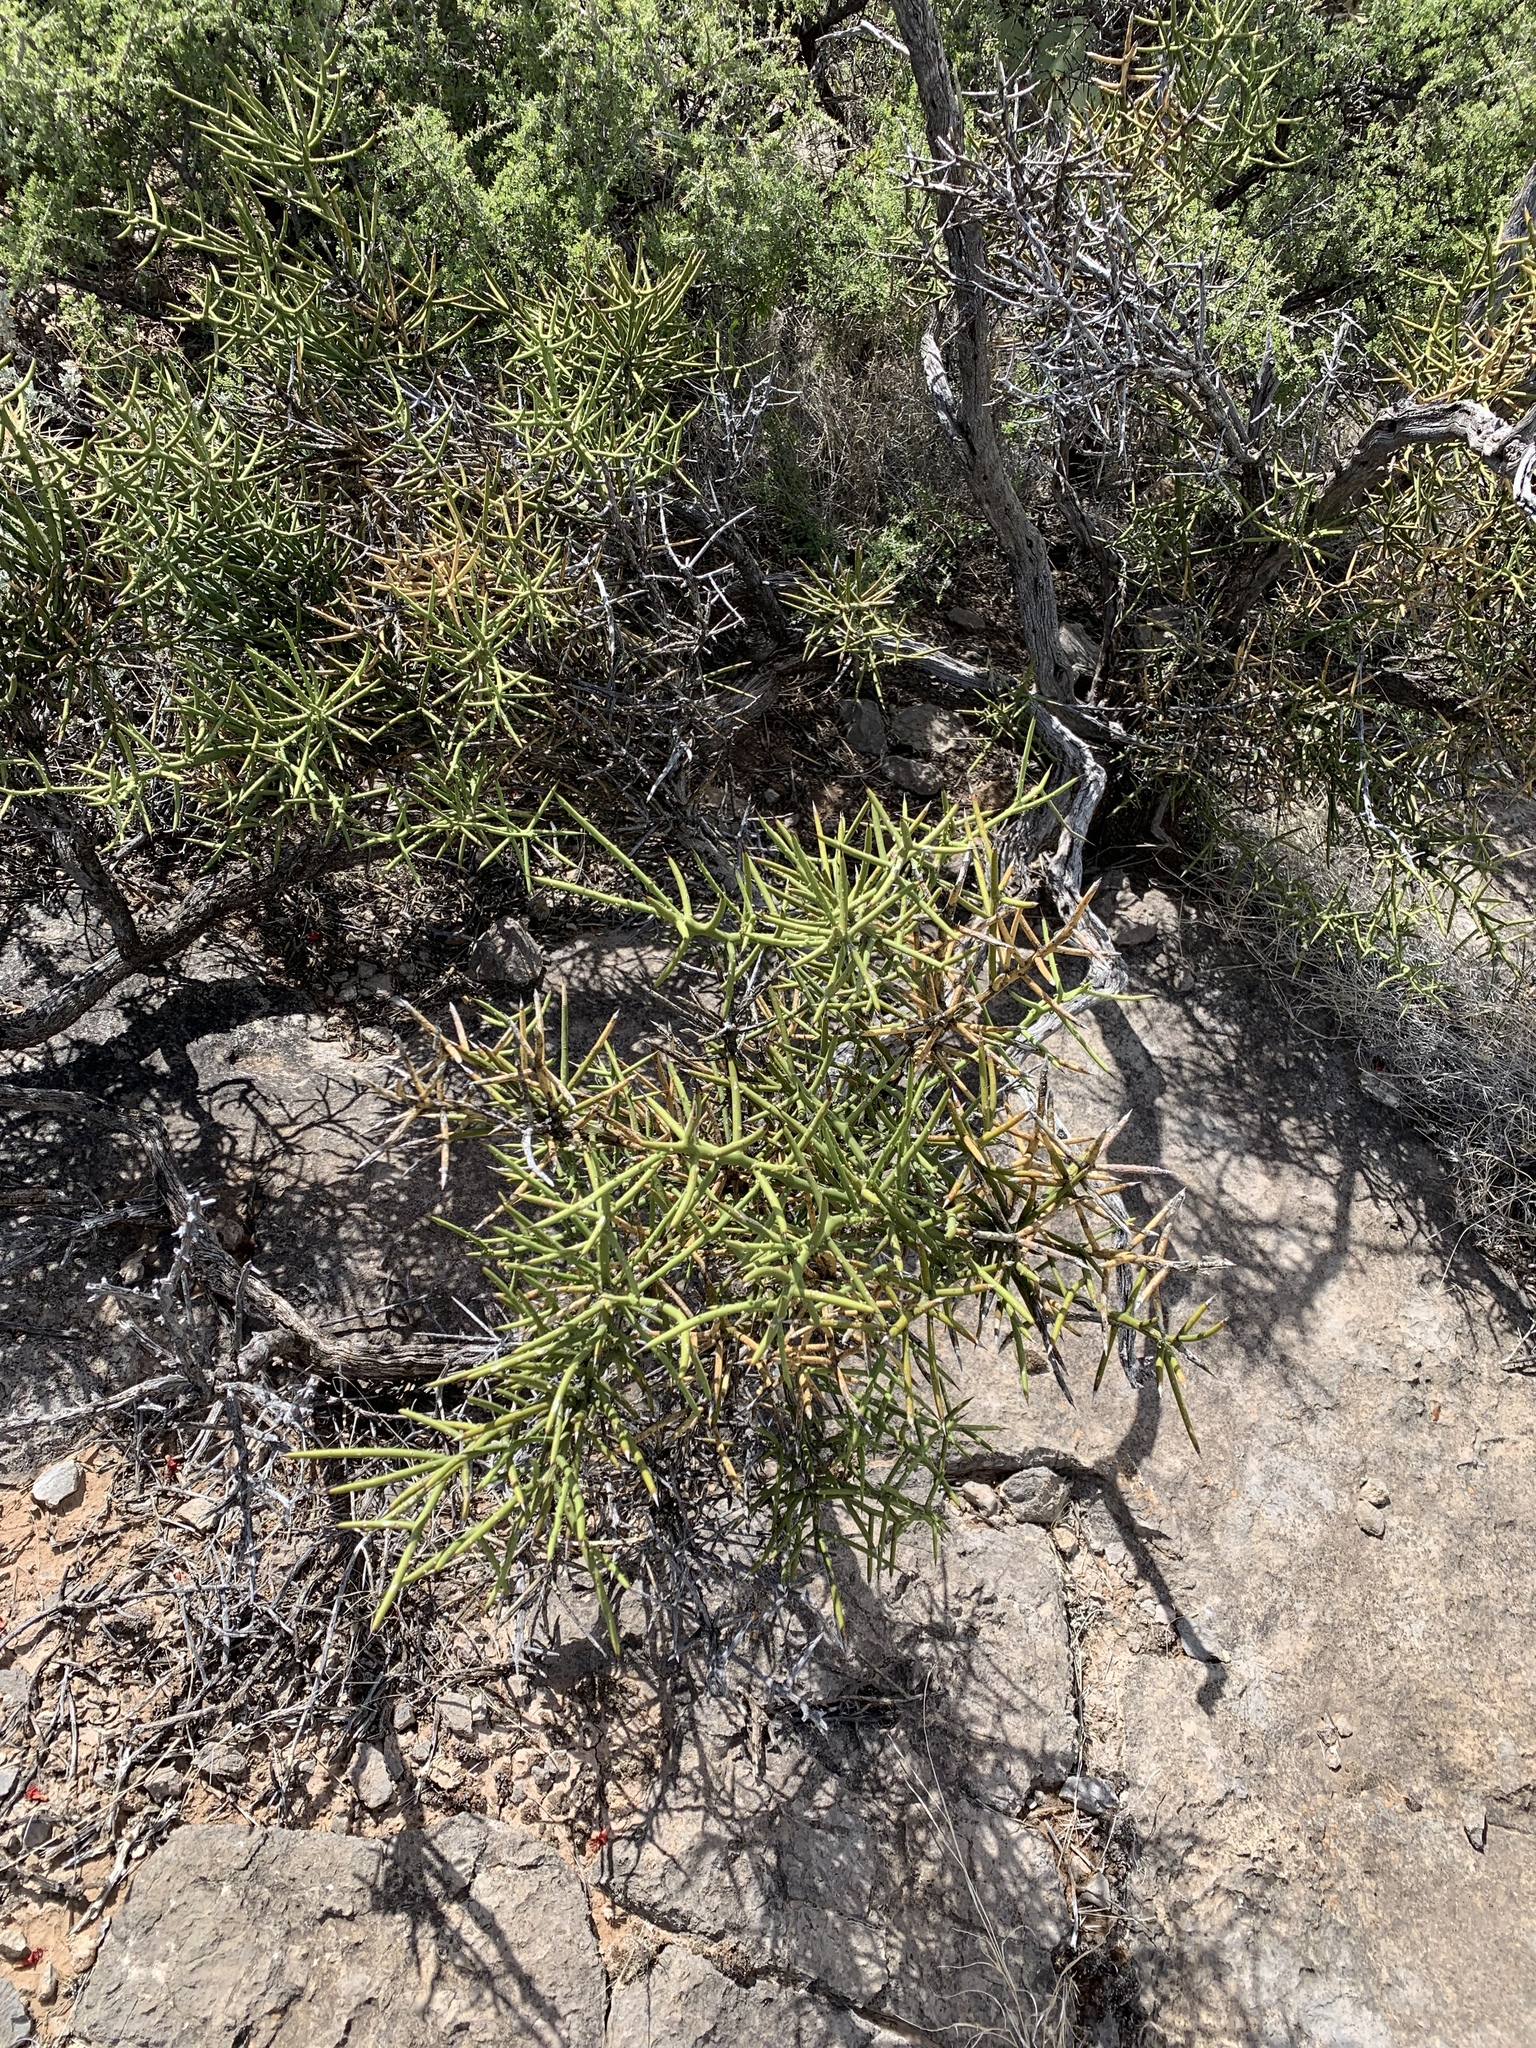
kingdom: Plantae
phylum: Tracheophyta
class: Magnoliopsida
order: Brassicales
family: Koeberliniaceae
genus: Koeberlinia
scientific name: Koeberlinia spinosa
